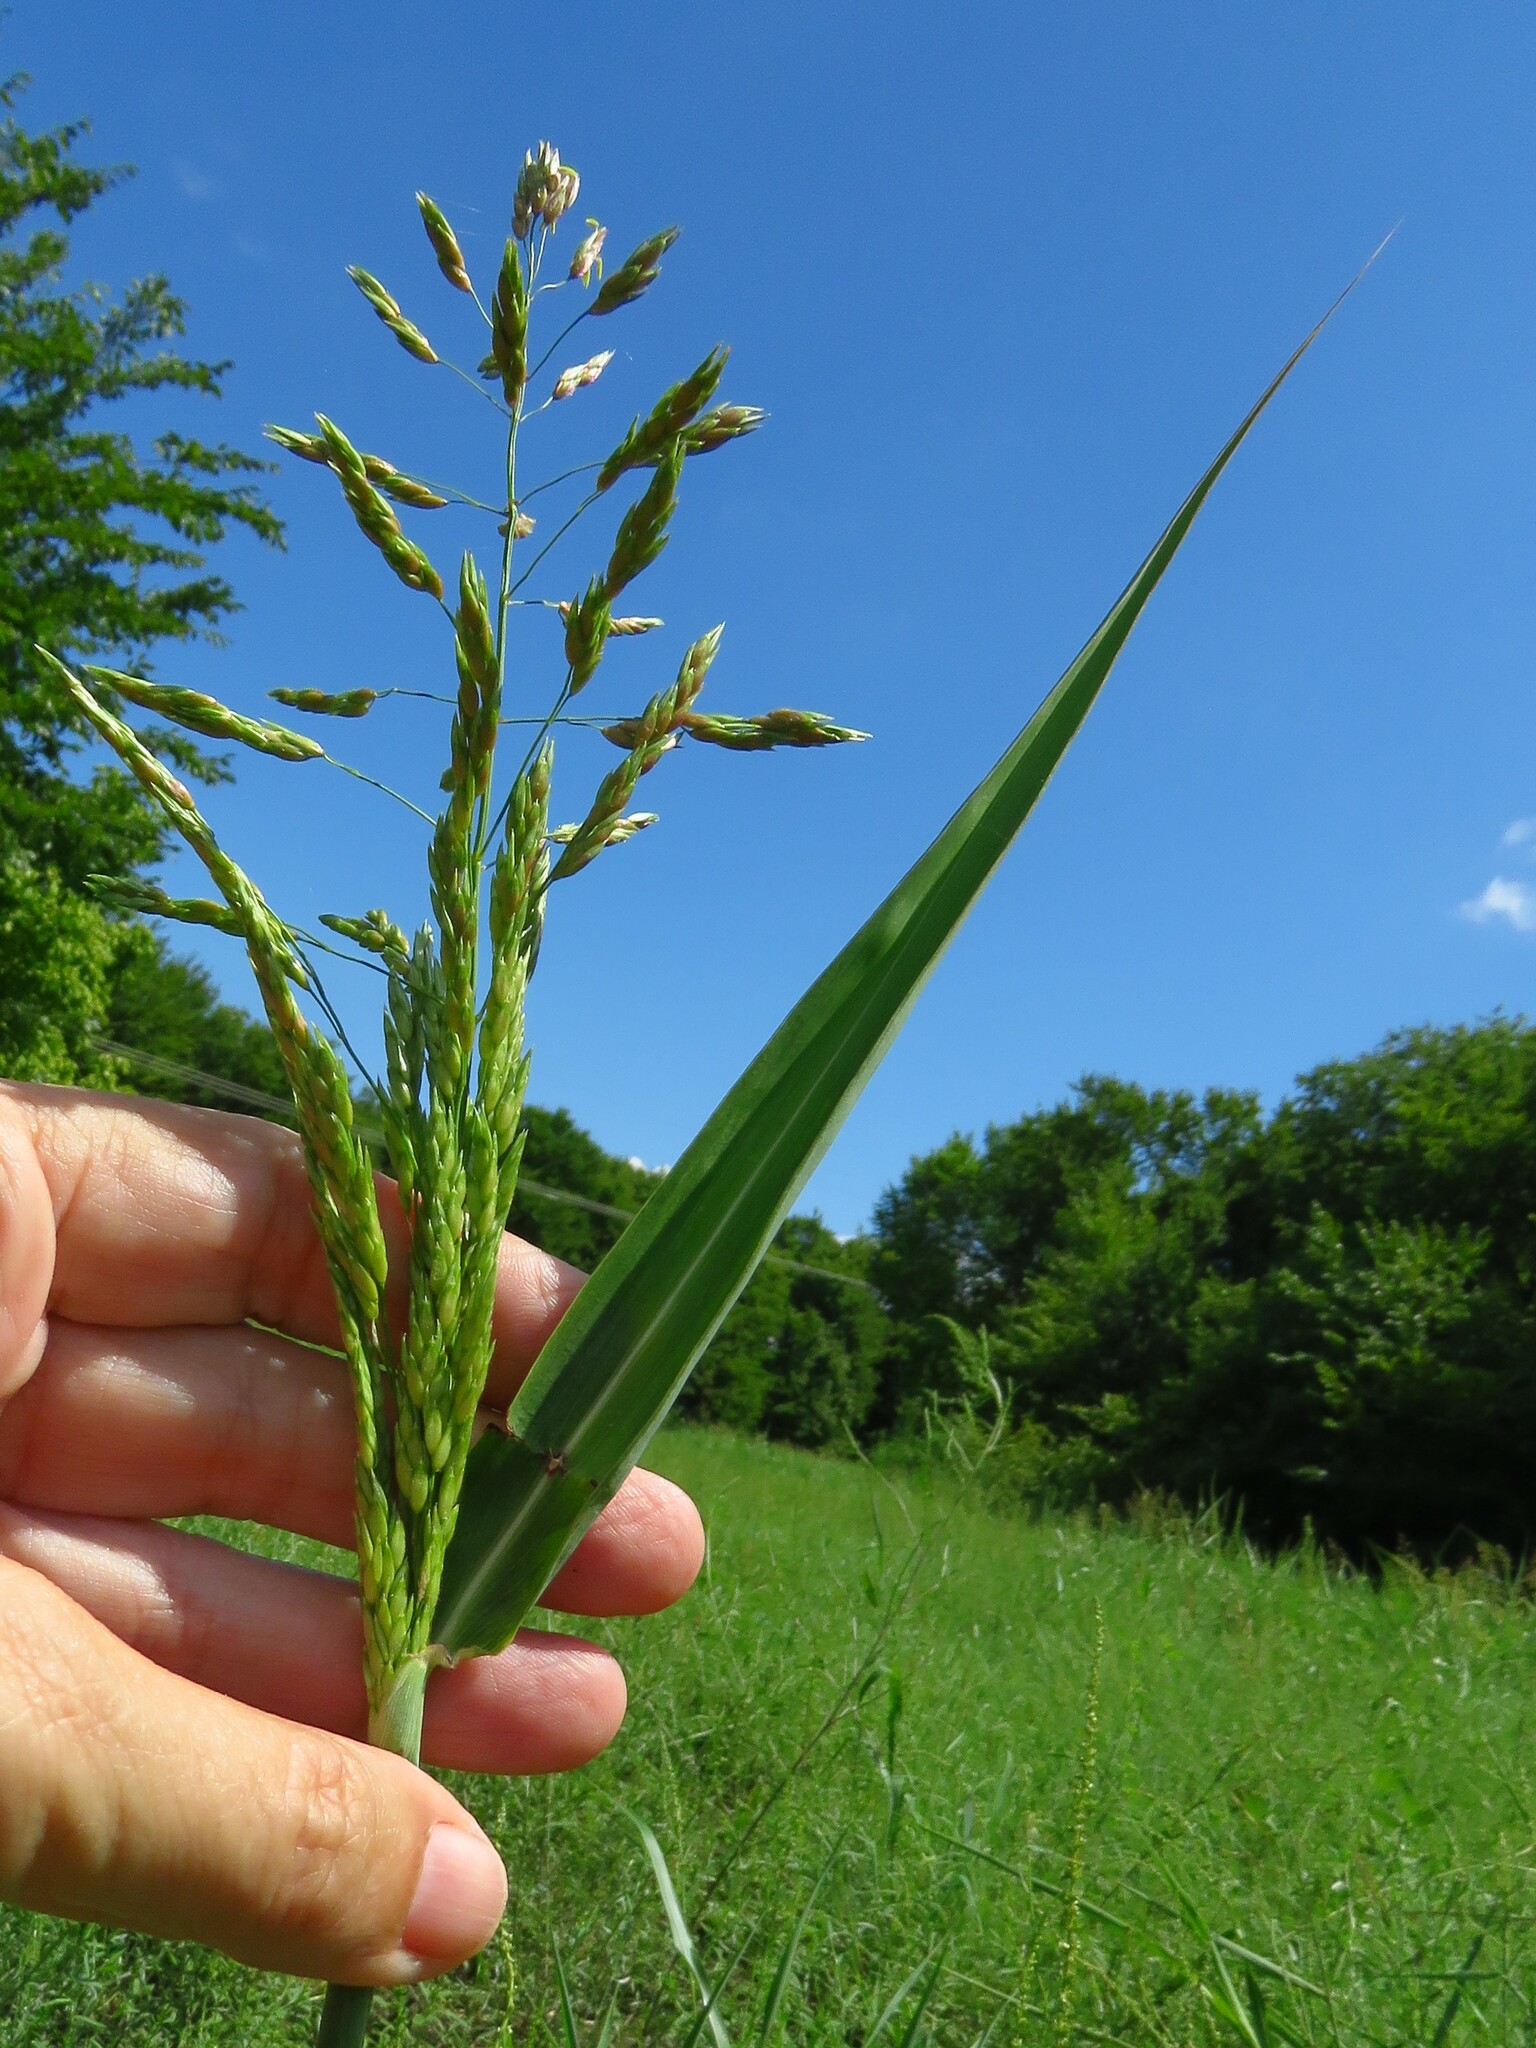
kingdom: Plantae
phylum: Tracheophyta
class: Liliopsida
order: Poales
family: Poaceae
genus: Sorghum
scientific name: Sorghum halepense
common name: Johnson-grass
